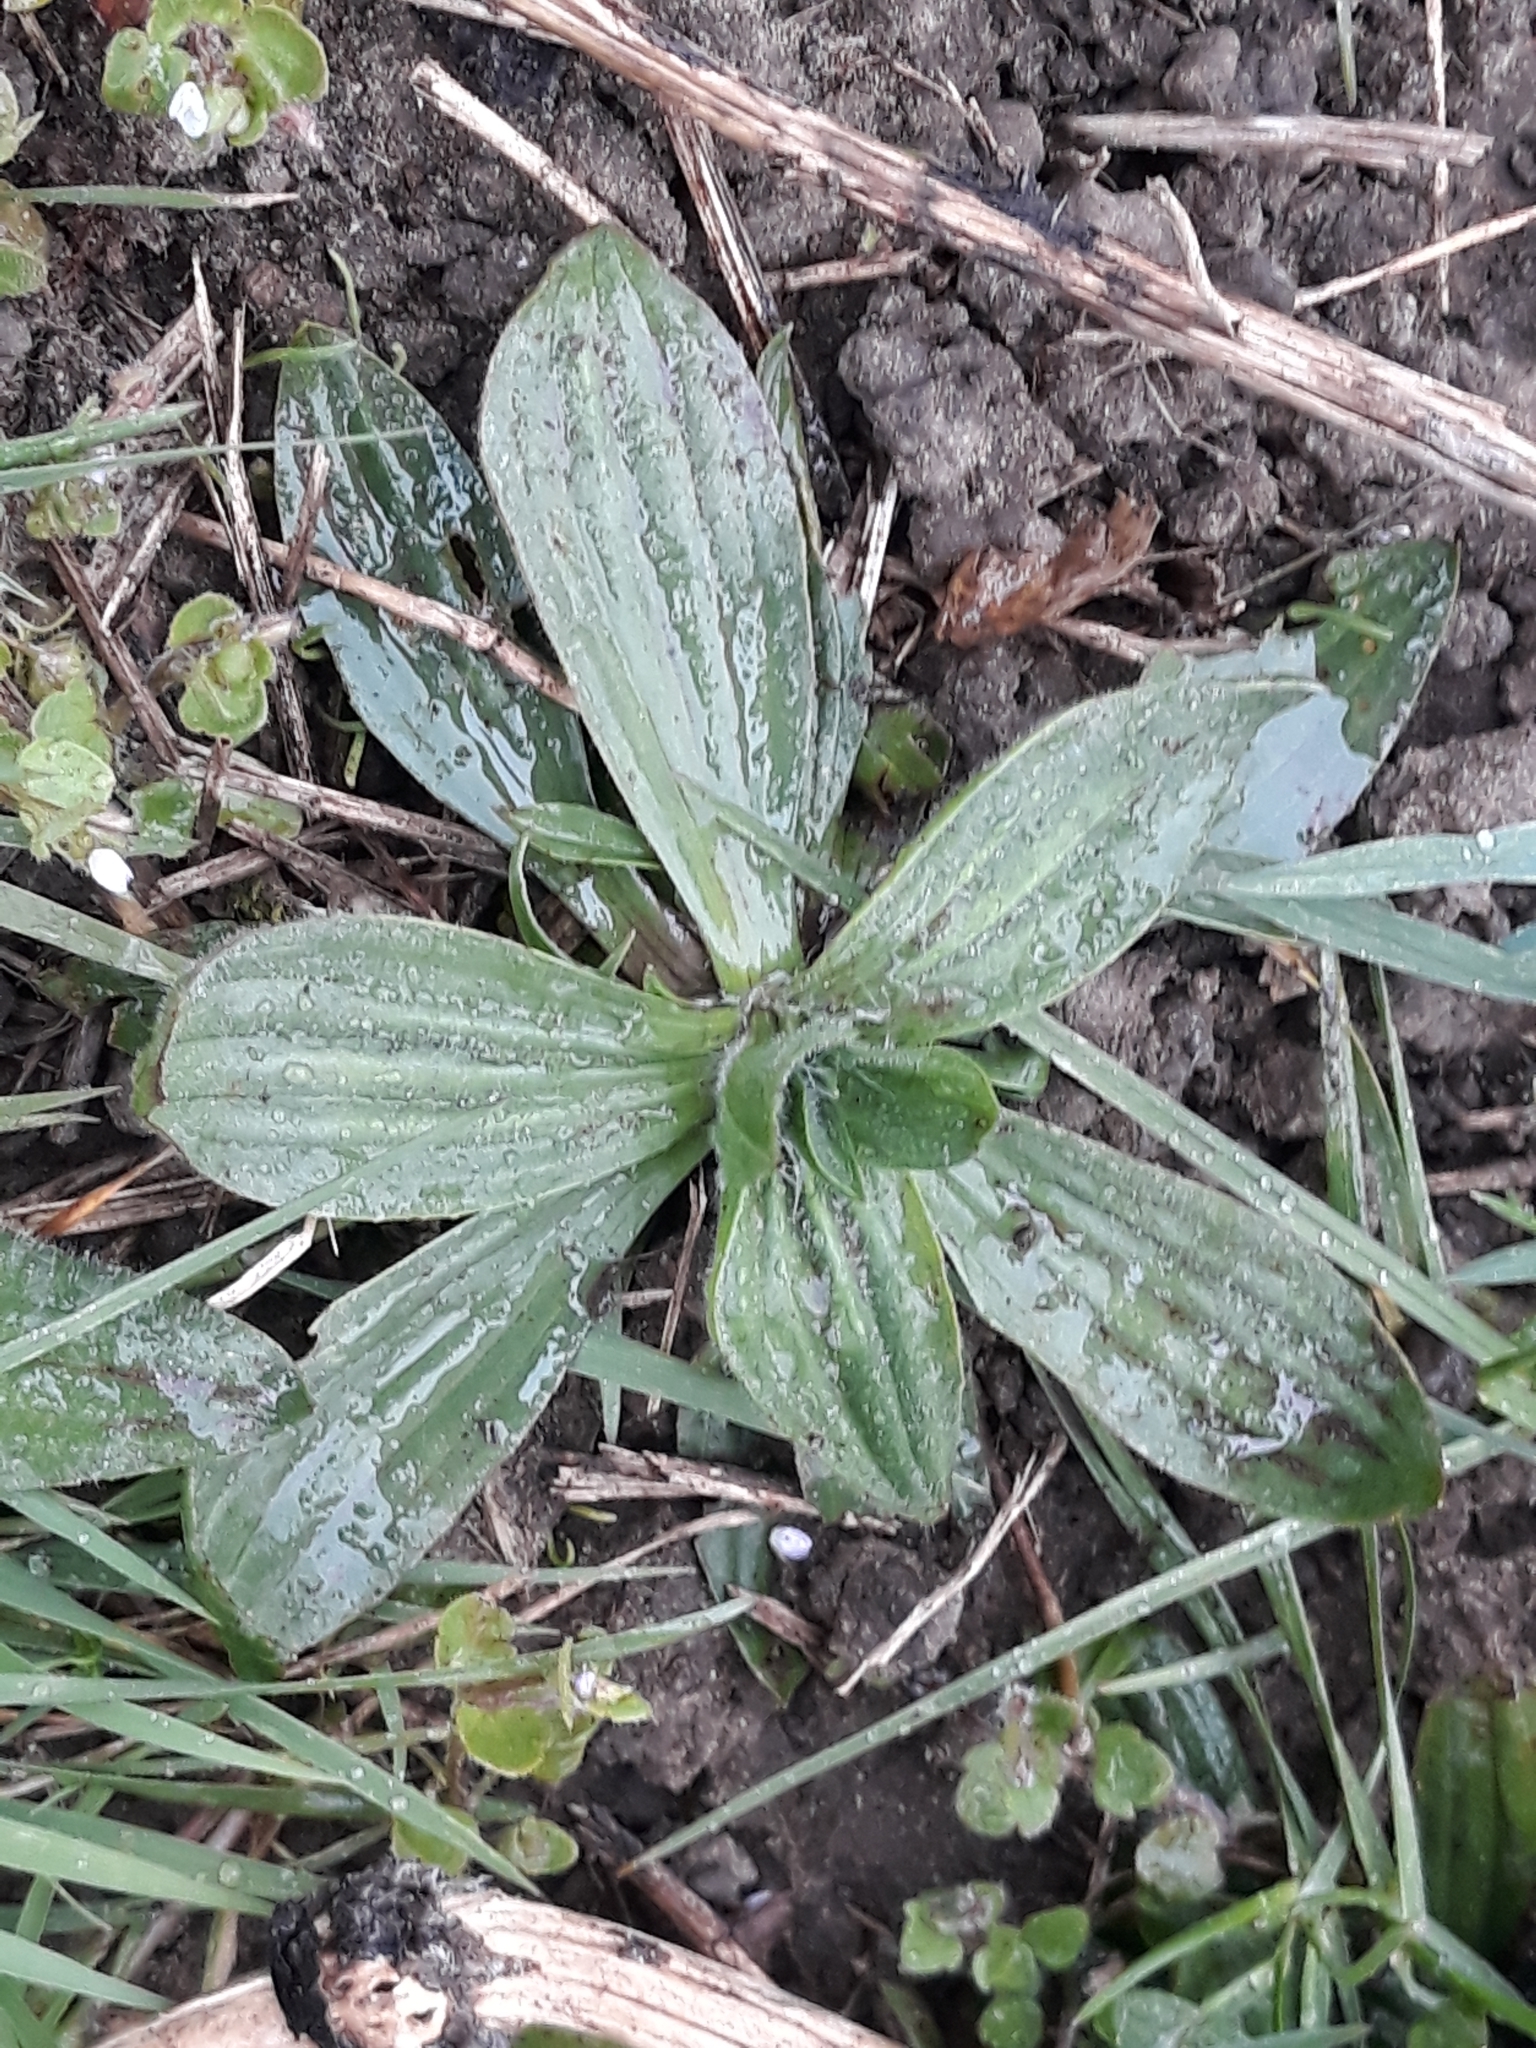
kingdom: Plantae
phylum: Tracheophyta
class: Magnoliopsida
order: Lamiales
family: Plantaginaceae
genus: Plantago
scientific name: Plantago media
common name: Hoary plantain
